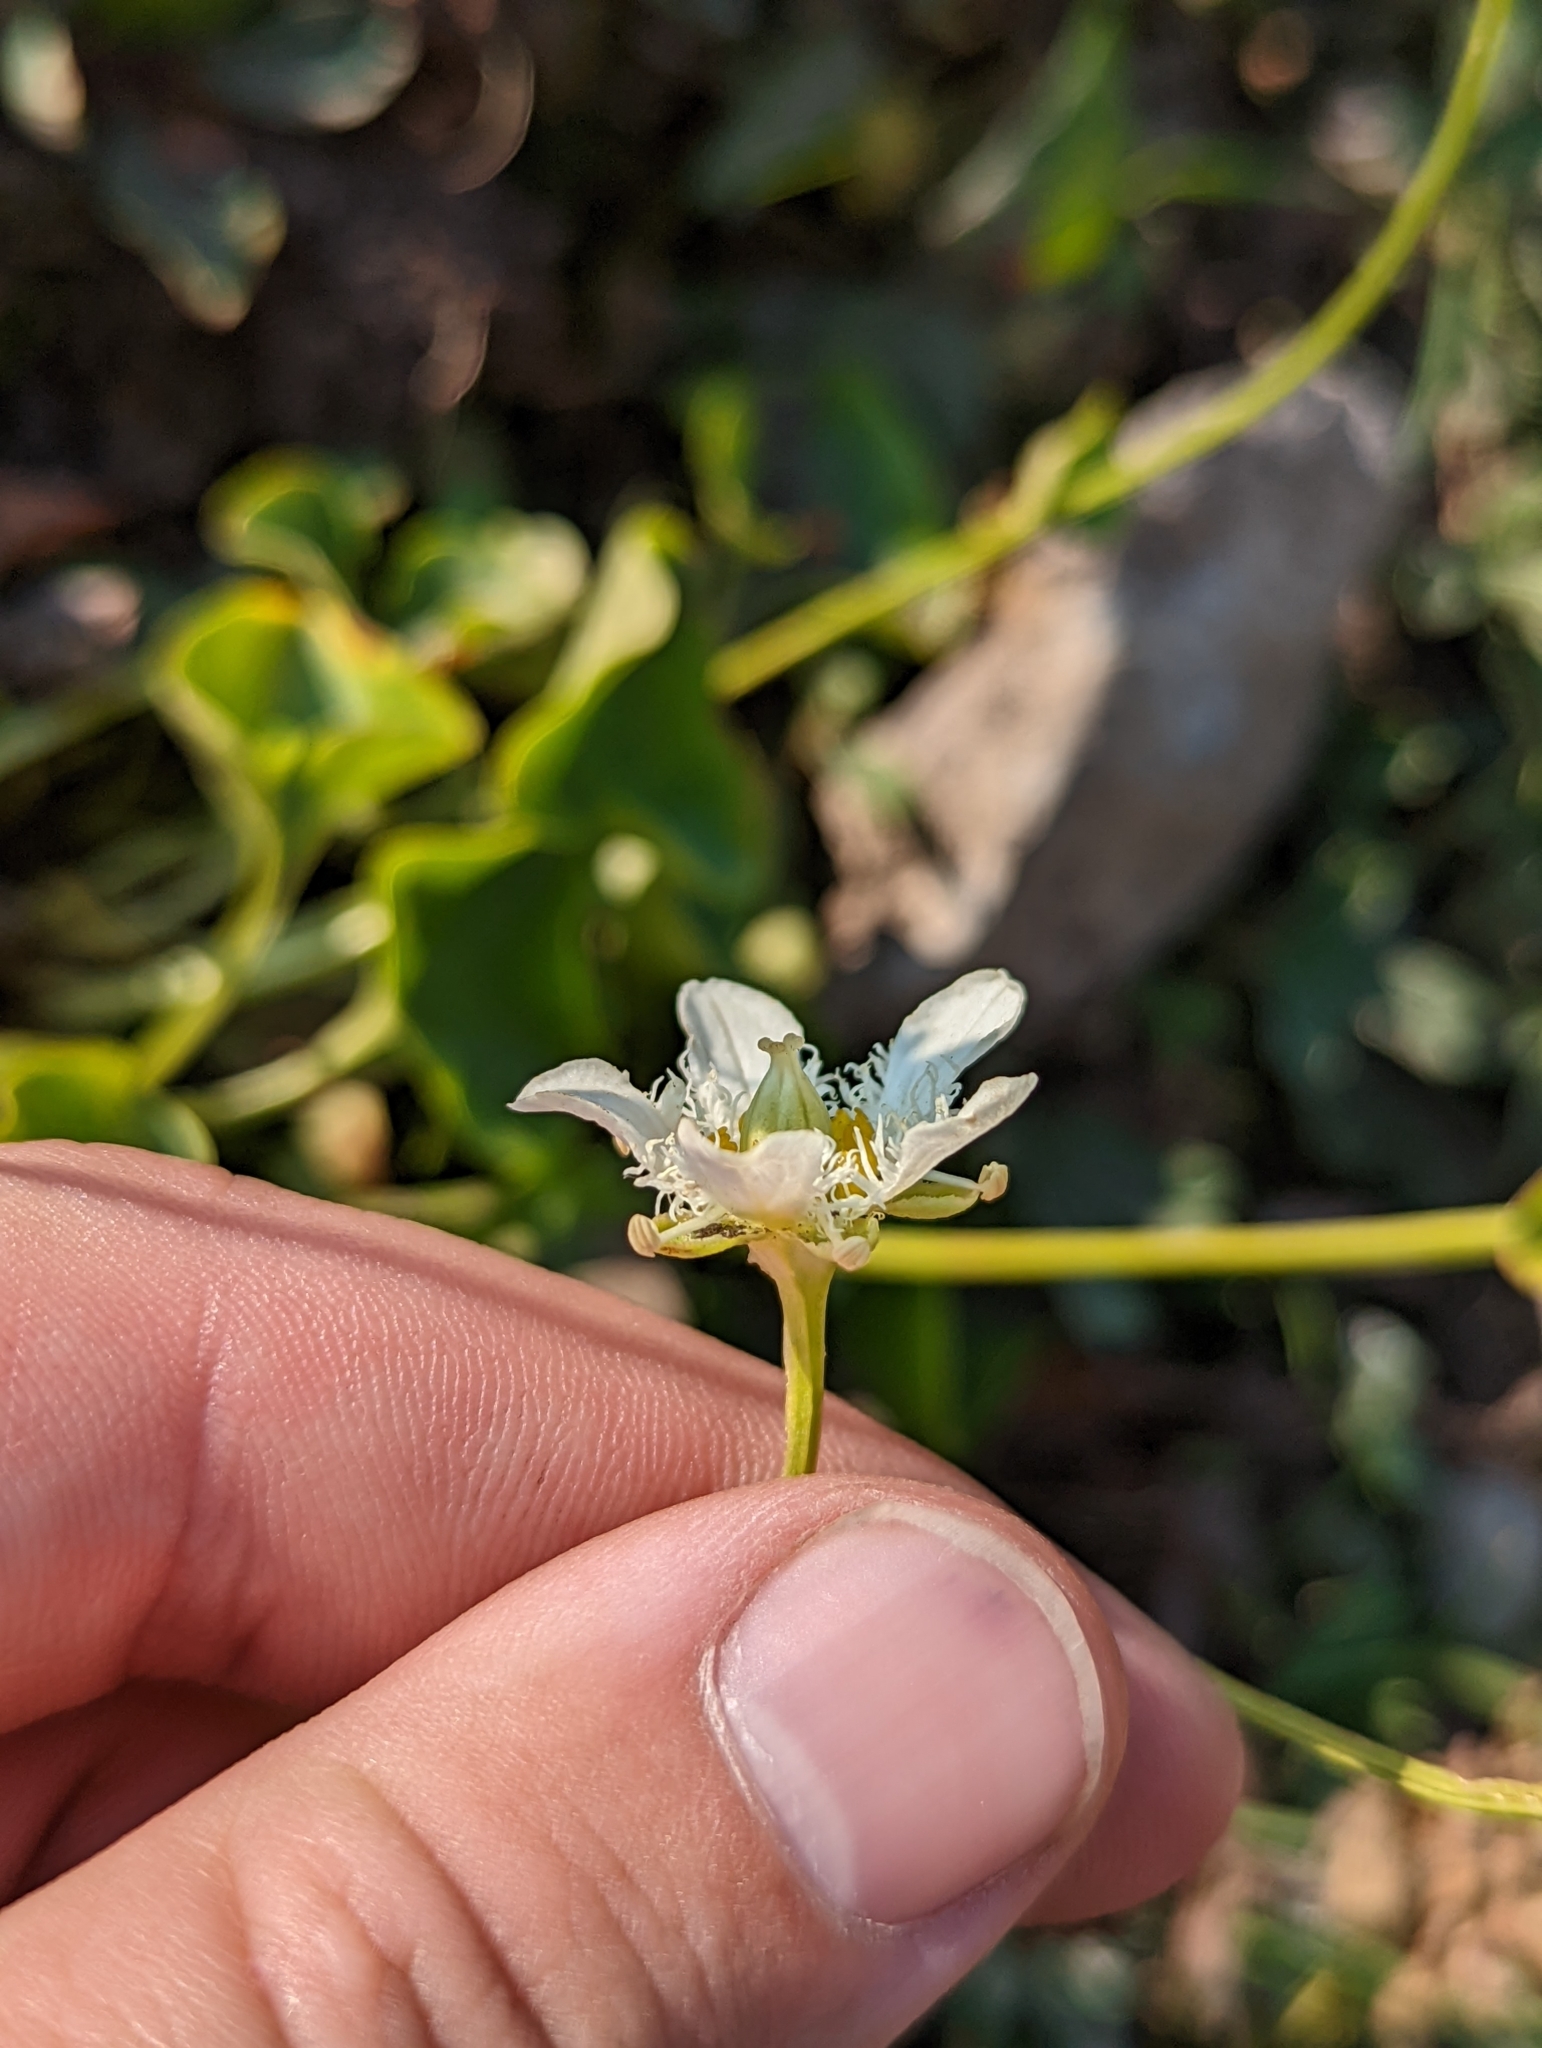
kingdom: Plantae
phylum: Tracheophyta
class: Magnoliopsida
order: Celastrales
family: Parnassiaceae
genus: Parnassia
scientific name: Parnassia fimbriata
